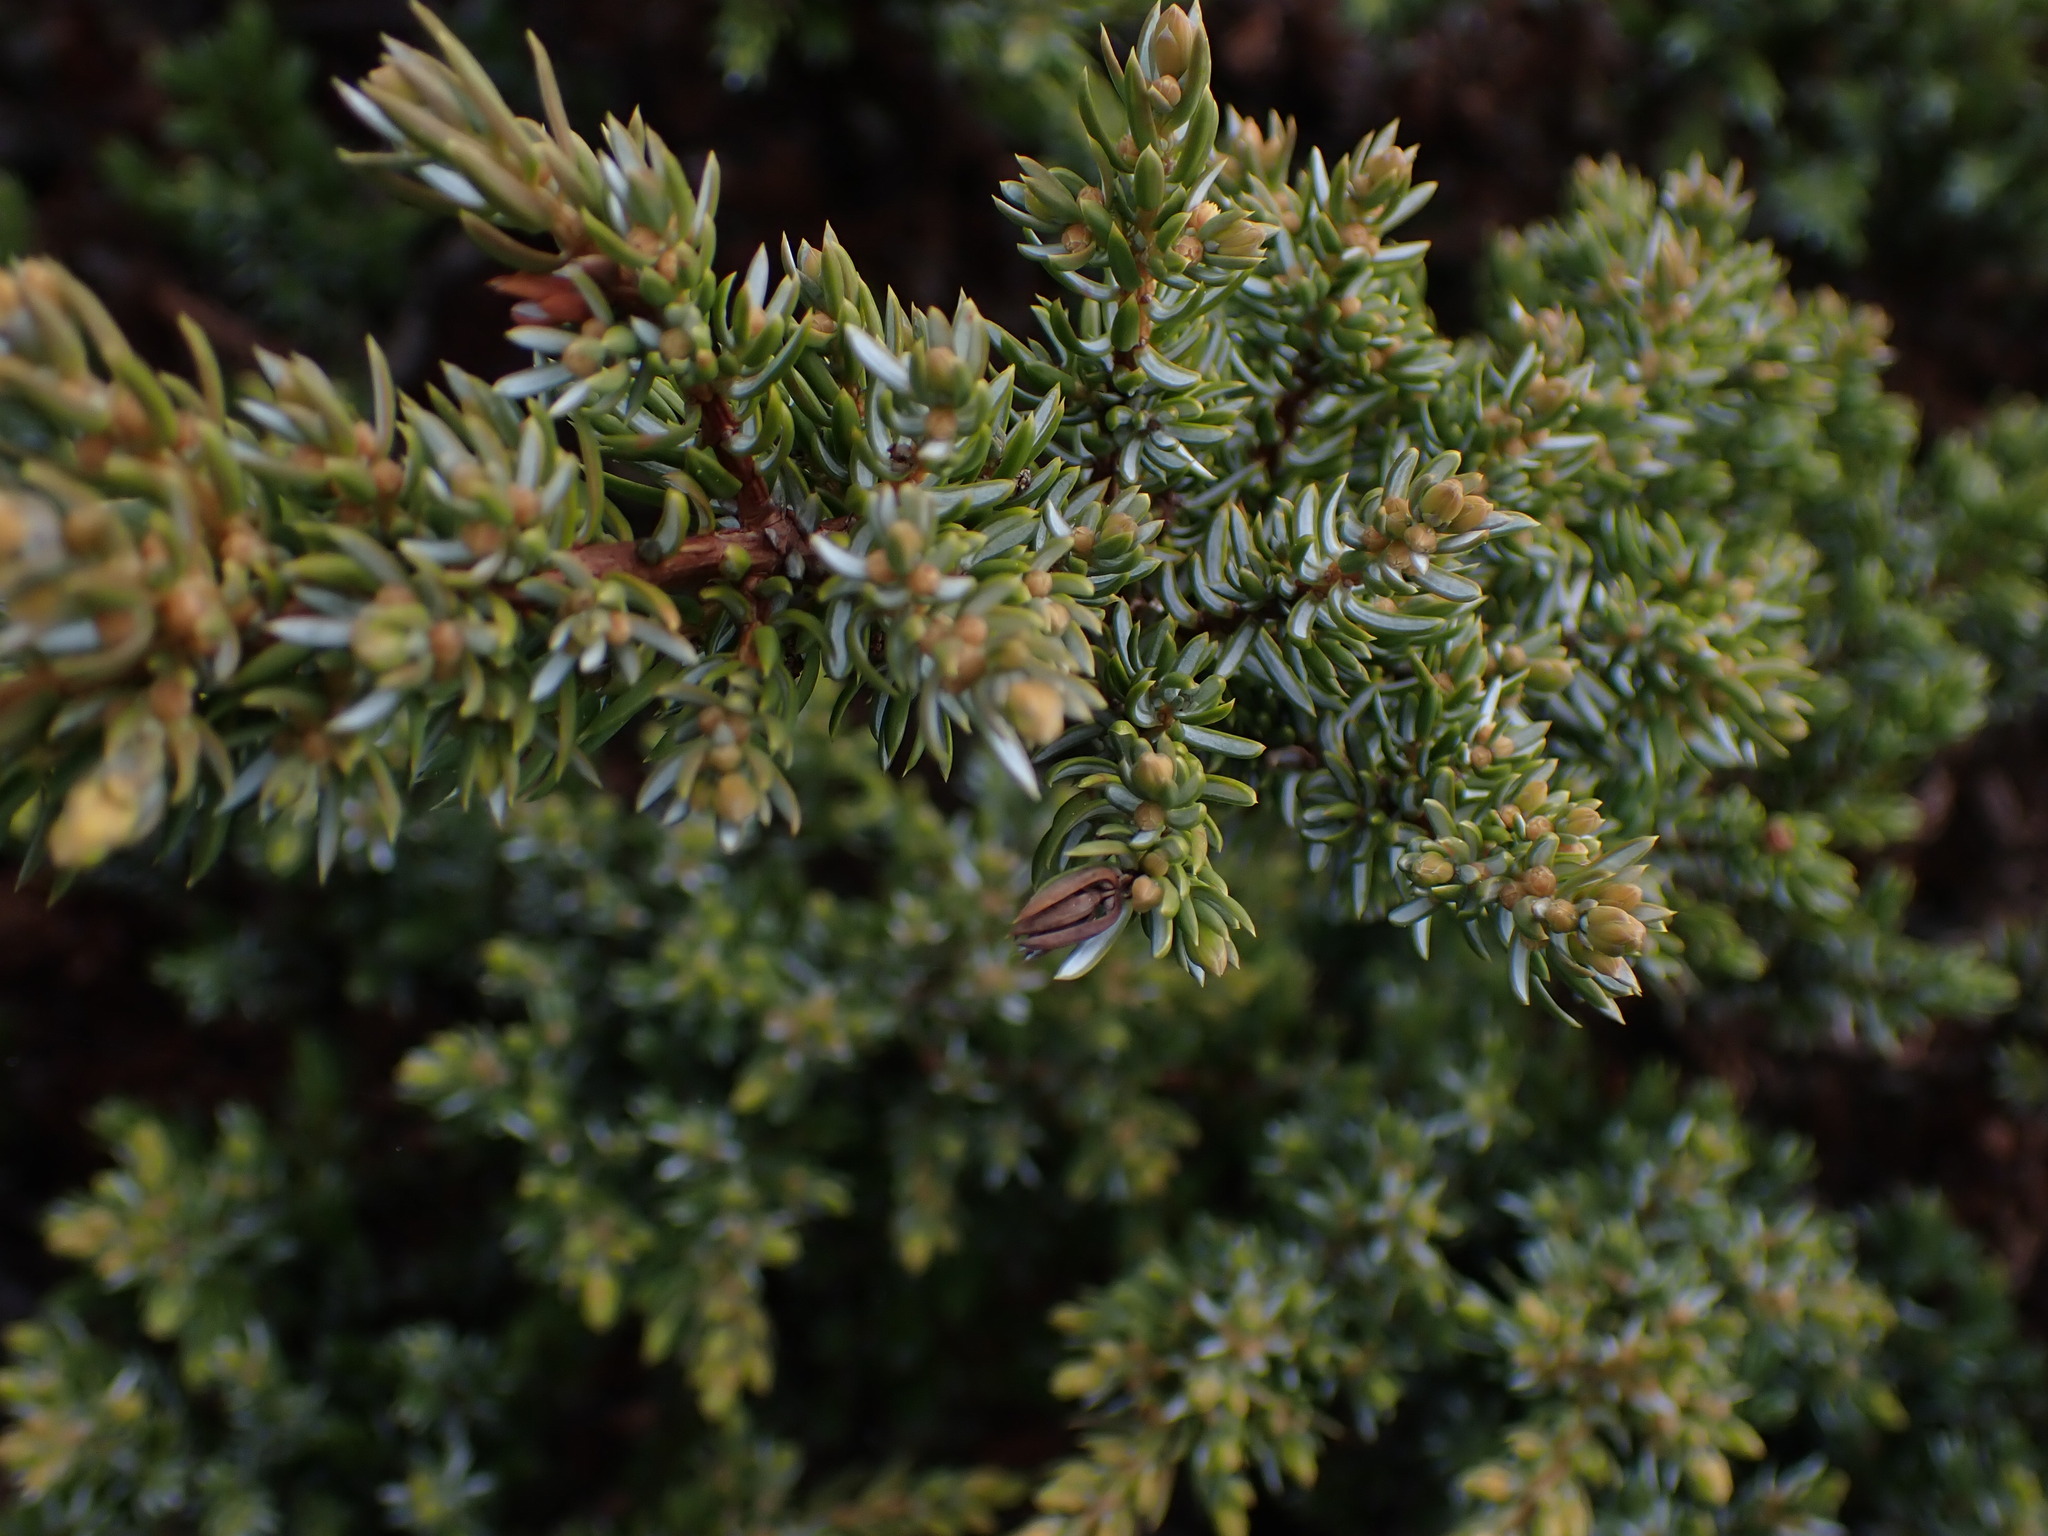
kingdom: Plantae
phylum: Tracheophyta
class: Pinopsida
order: Pinales
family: Cupressaceae
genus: Juniperus
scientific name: Juniperus communis
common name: Common juniper
